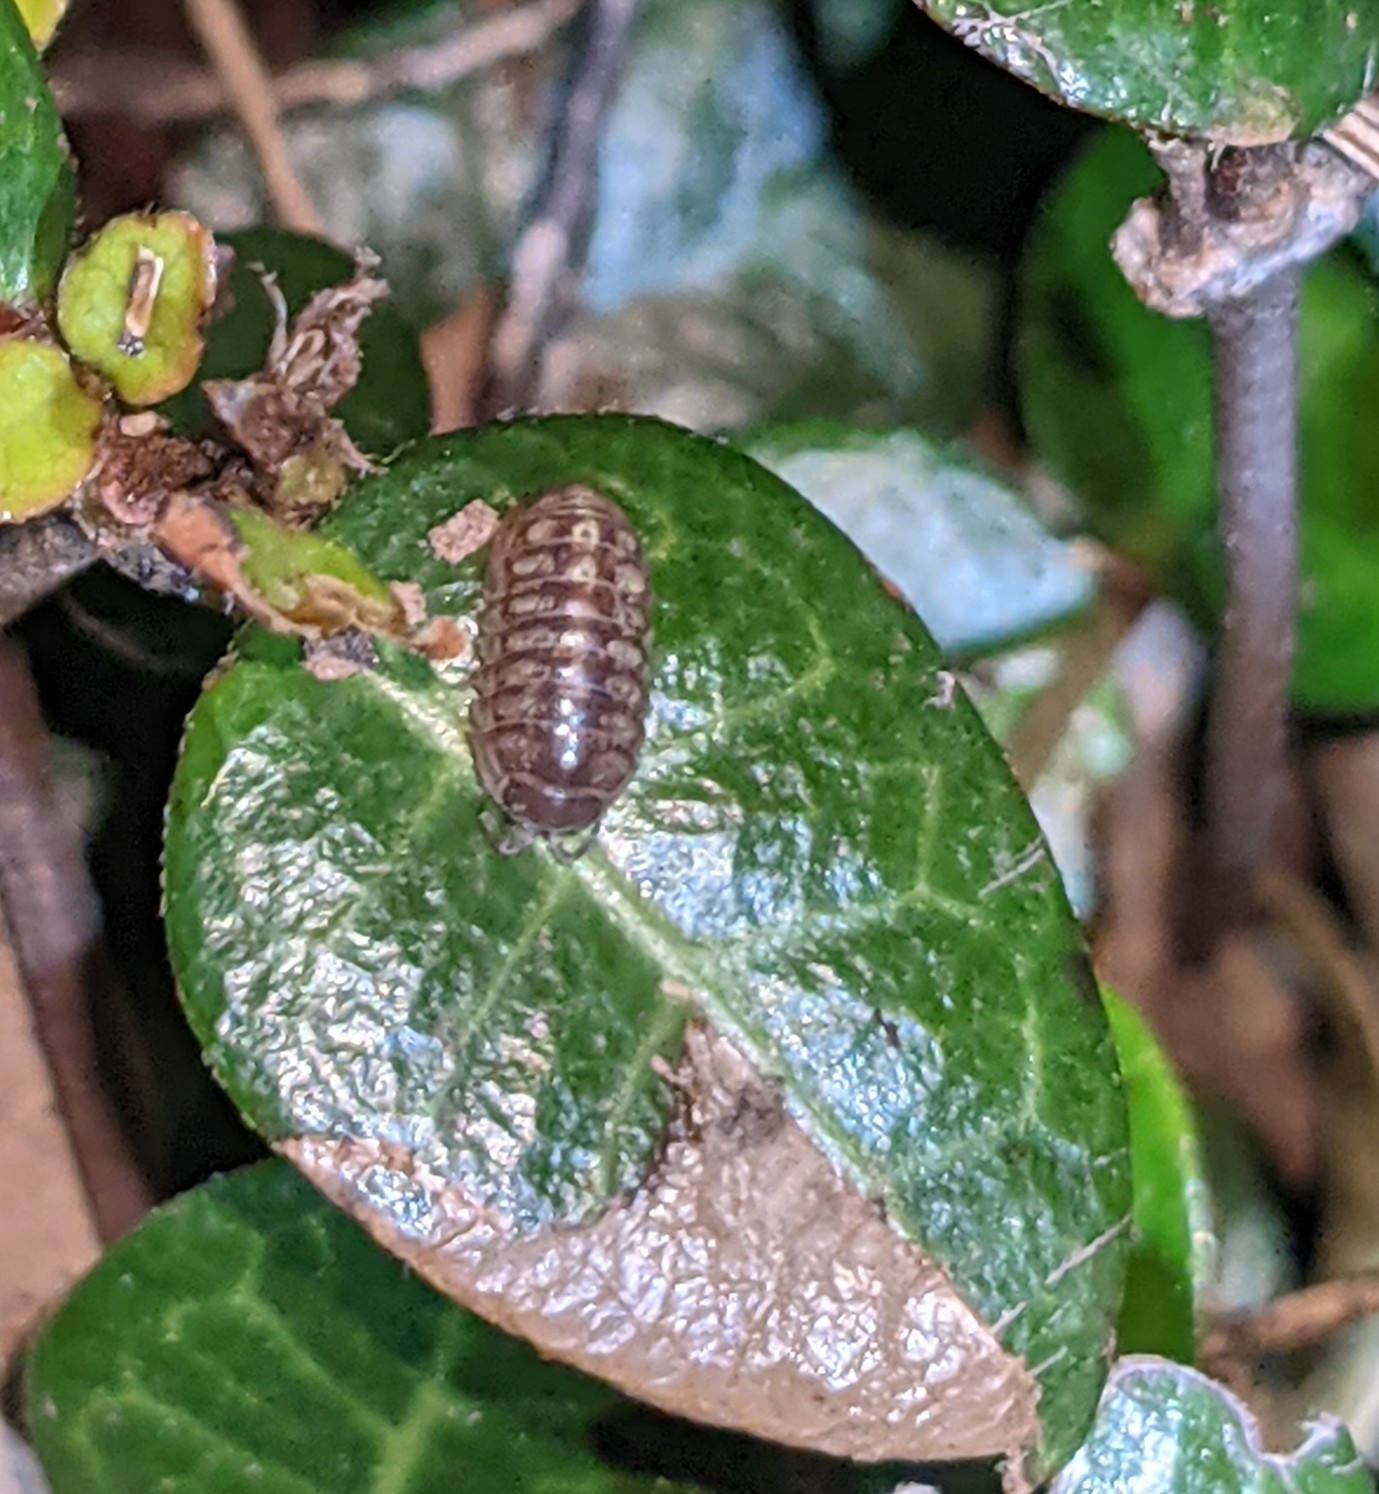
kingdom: Animalia
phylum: Arthropoda
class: Malacostraca
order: Isopoda
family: Armadillidiidae
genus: Armadillidium
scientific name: Armadillidium vulgare
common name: Common pill woodlouse
